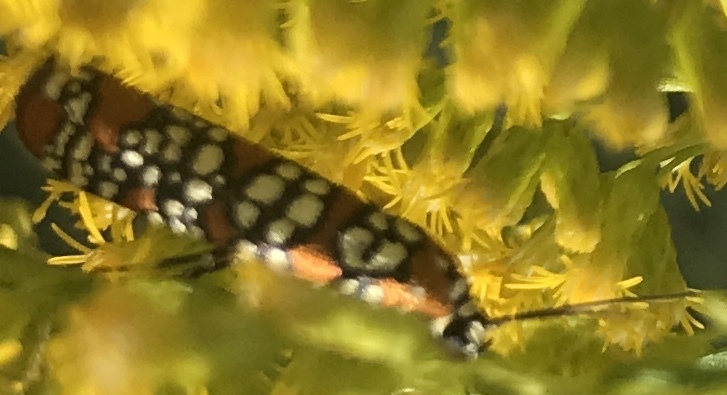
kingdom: Animalia
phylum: Arthropoda
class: Insecta
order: Lepidoptera
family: Attevidae
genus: Atteva
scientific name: Atteva punctella
